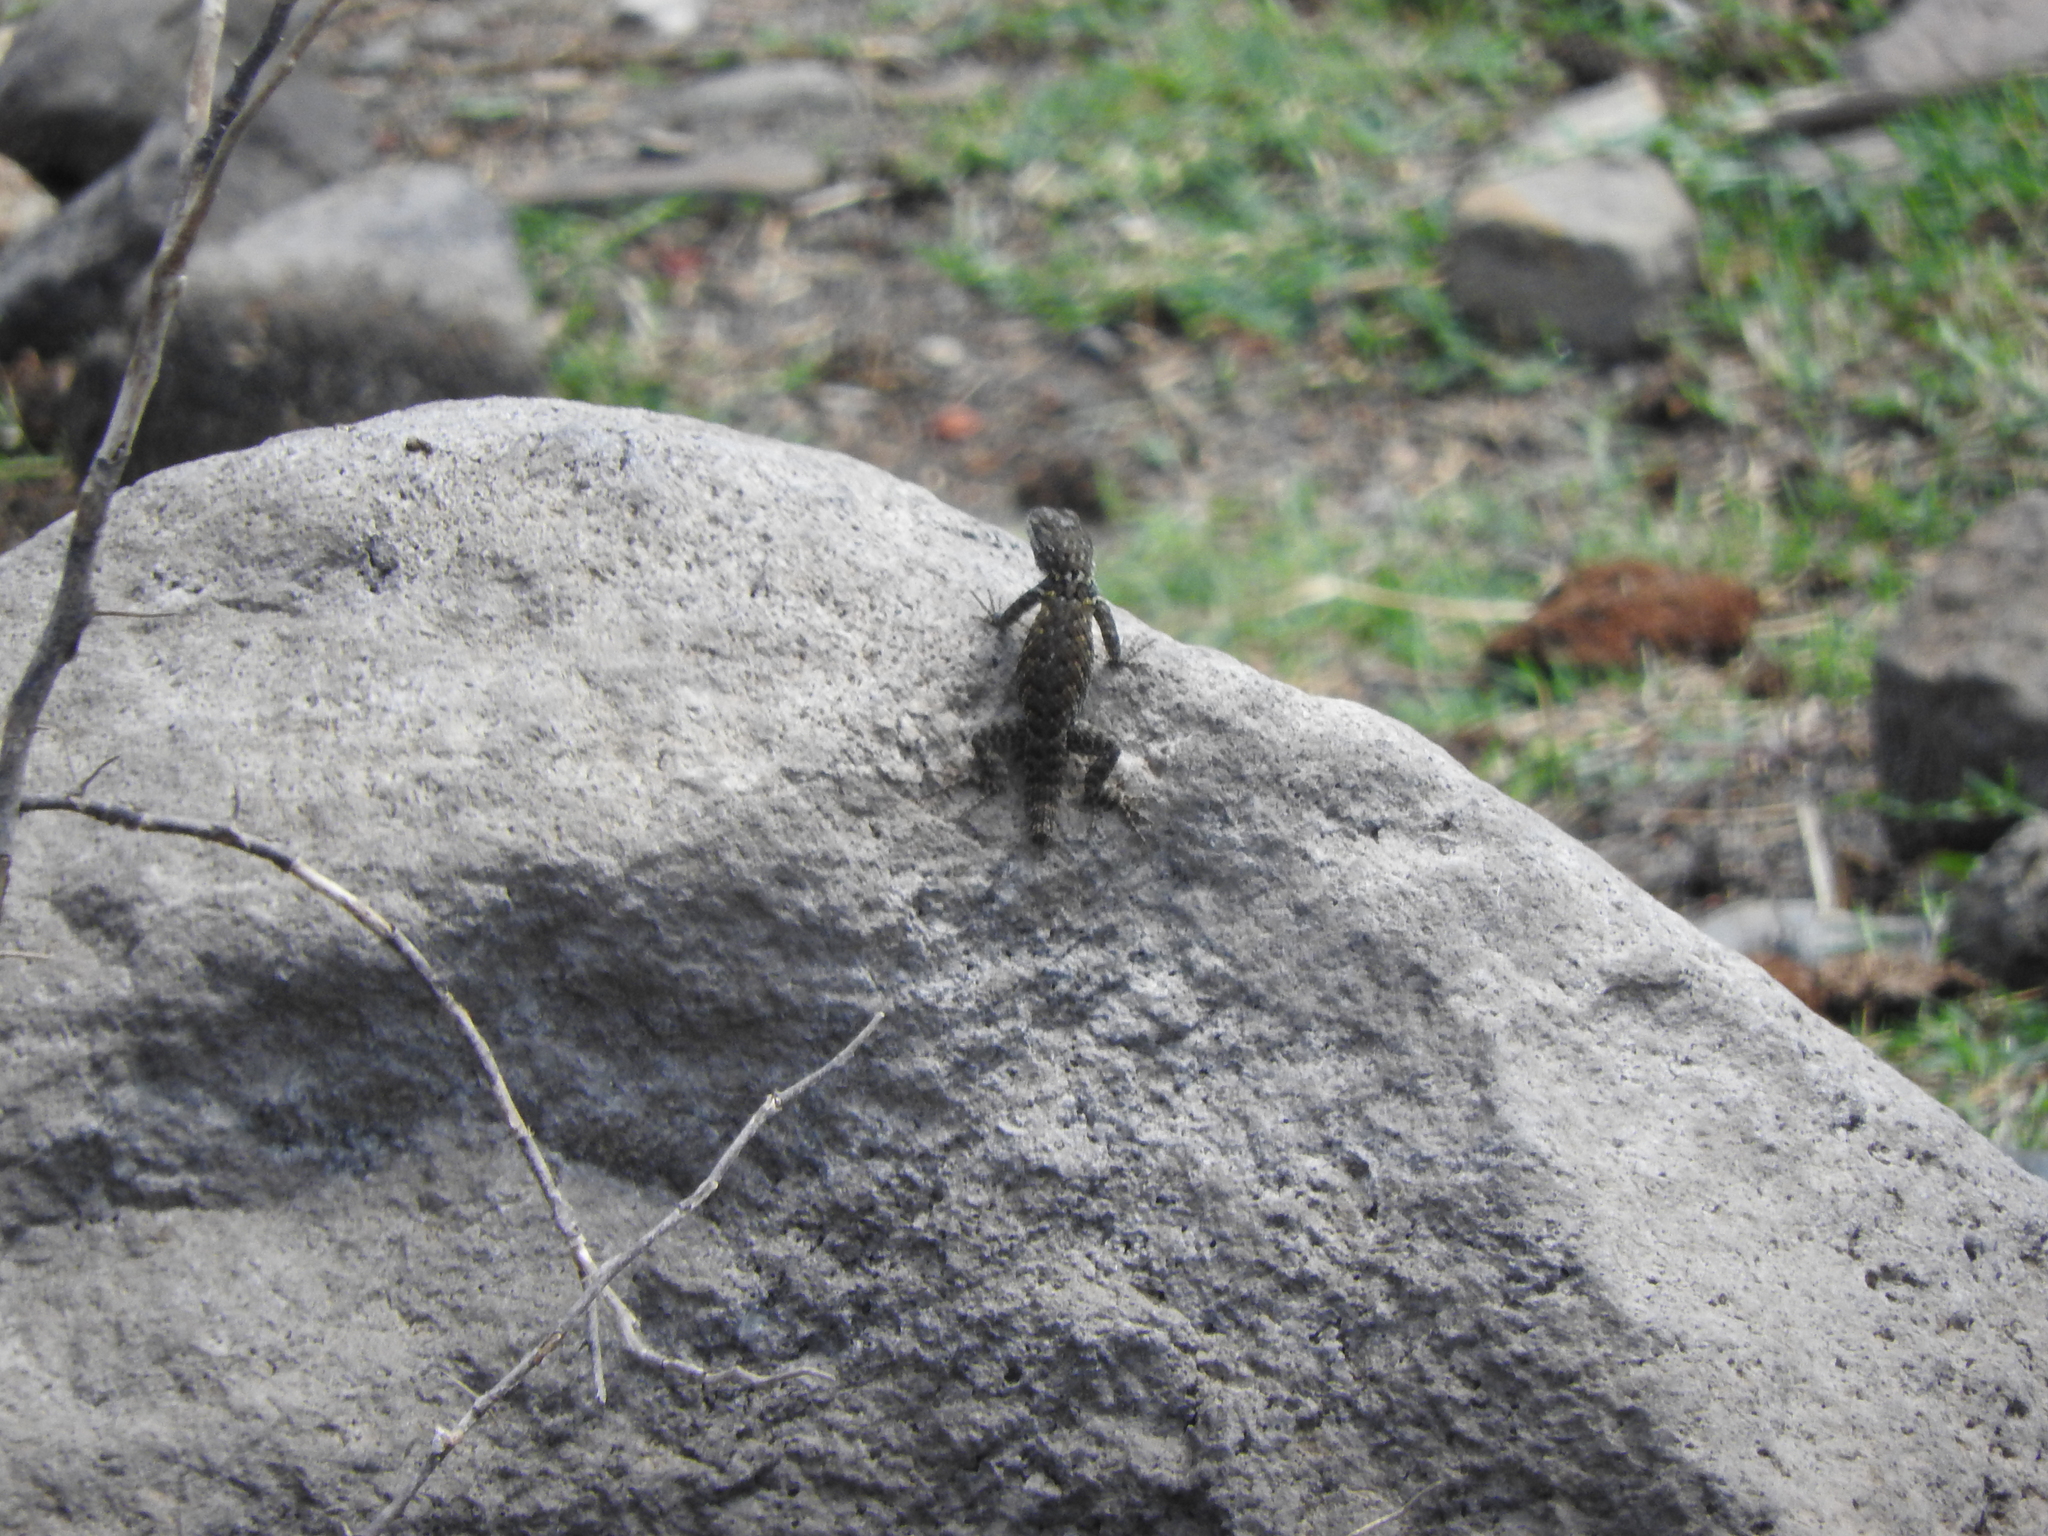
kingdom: Animalia
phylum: Chordata
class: Squamata
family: Phrynosomatidae
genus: Sceloporus
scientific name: Sceloporus torquatus
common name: Central plateau torquate lizard [melanogaster]
